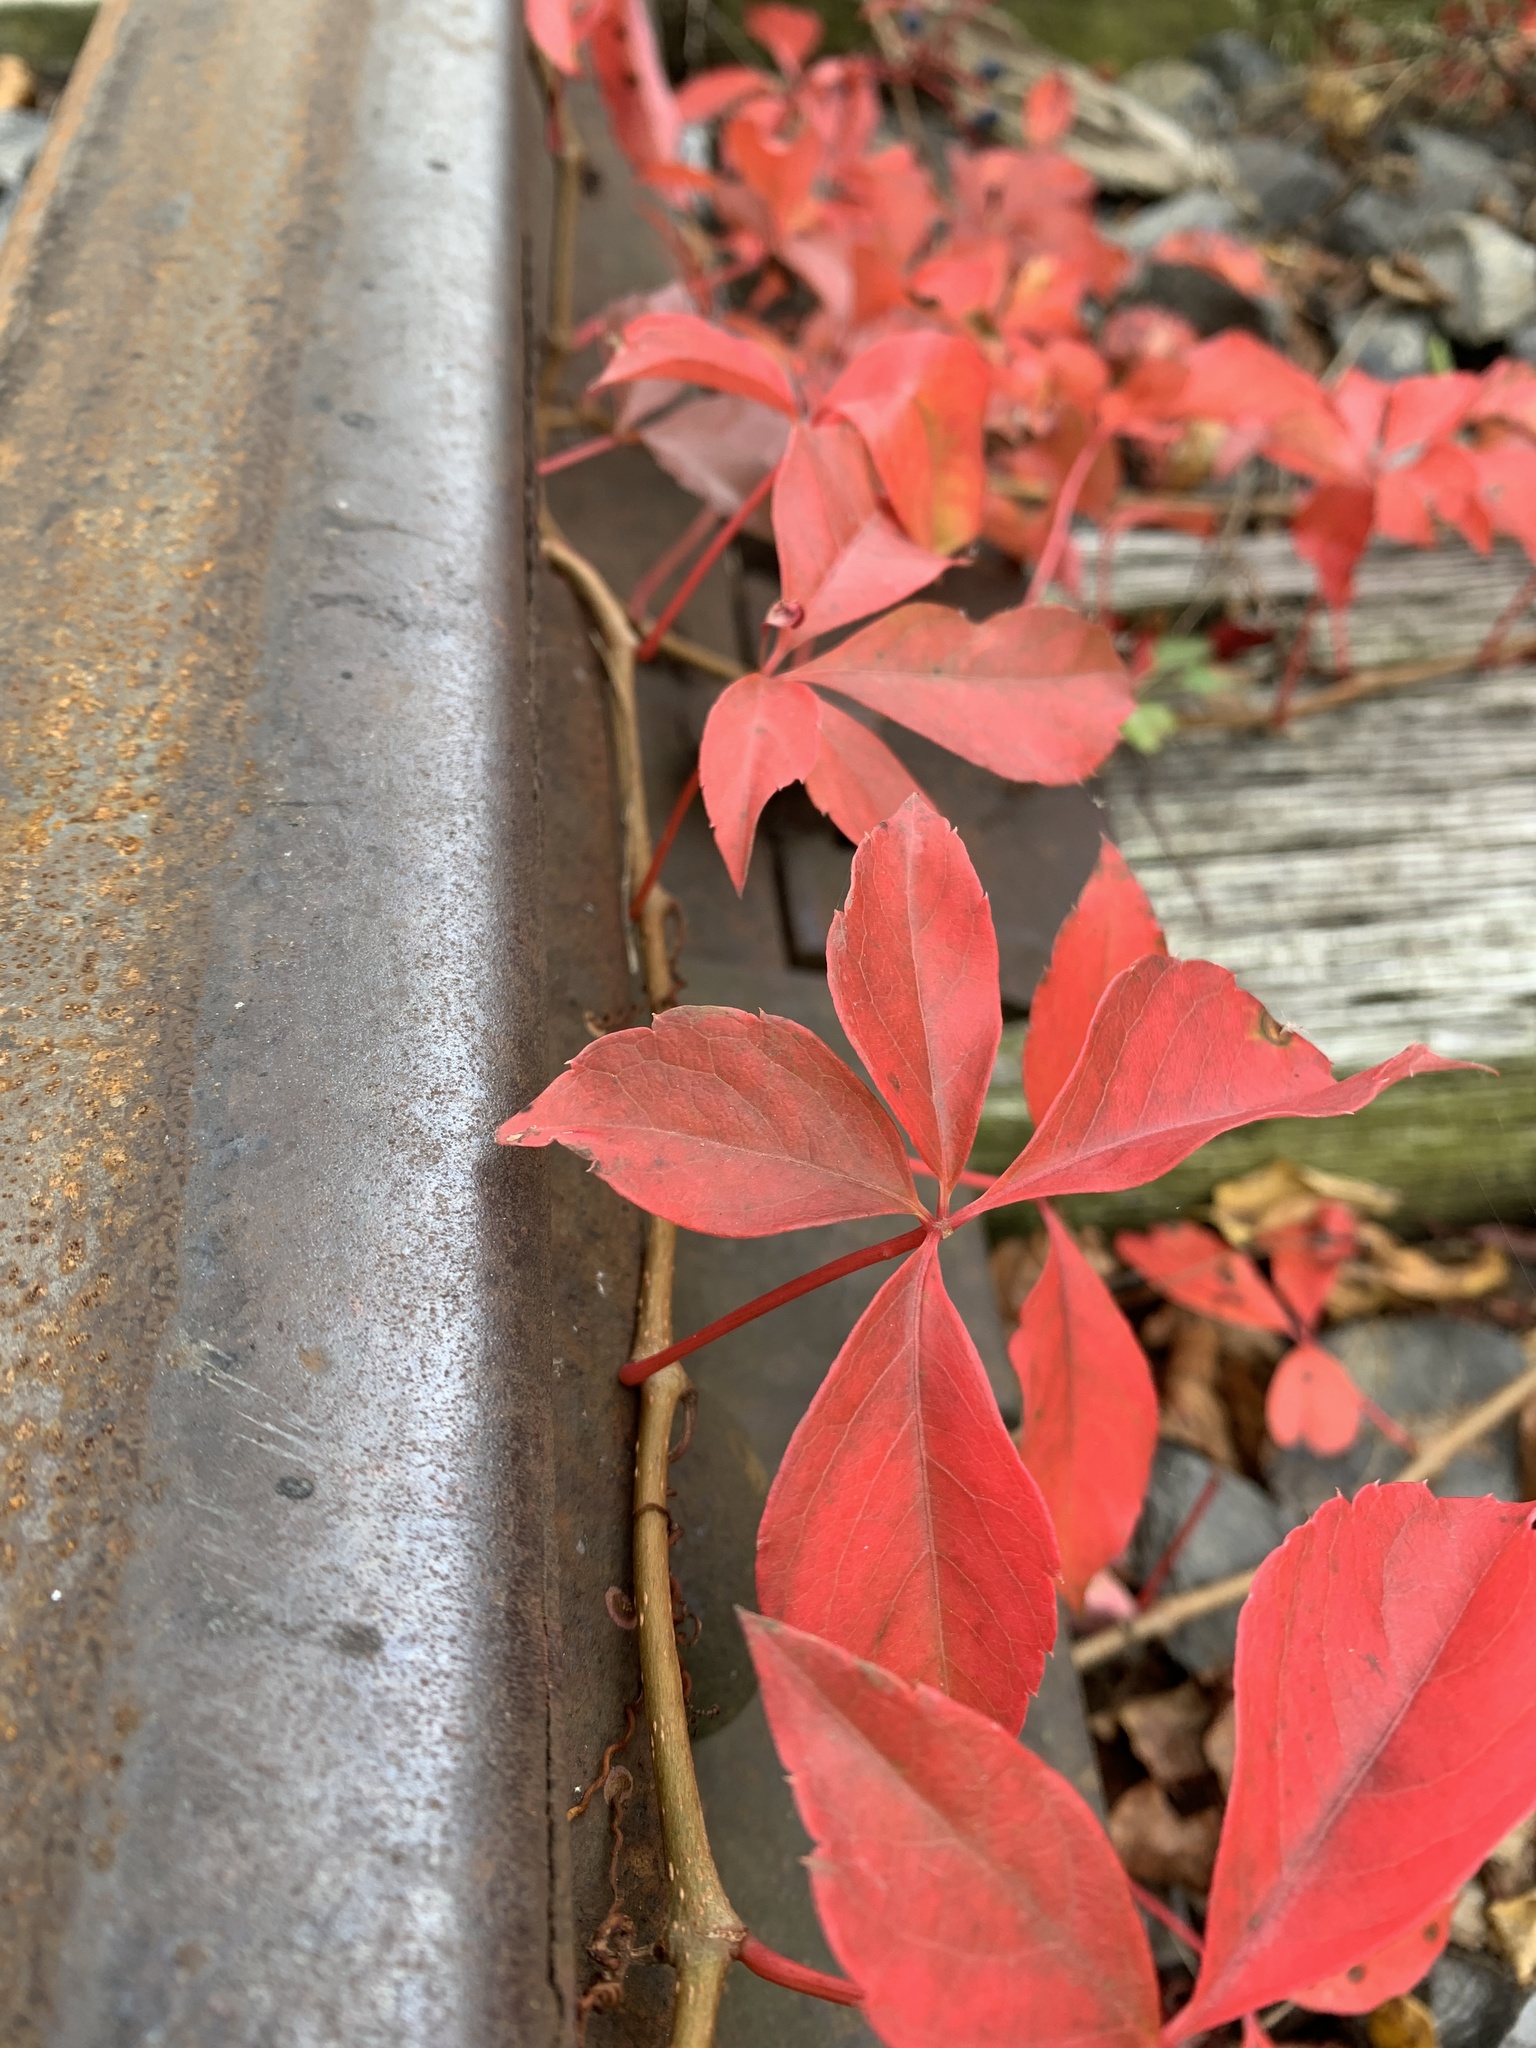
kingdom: Plantae
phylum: Tracheophyta
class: Magnoliopsida
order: Vitales
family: Vitaceae
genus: Parthenocissus
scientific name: Parthenocissus quinquefolia
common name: Virginia-creeper
